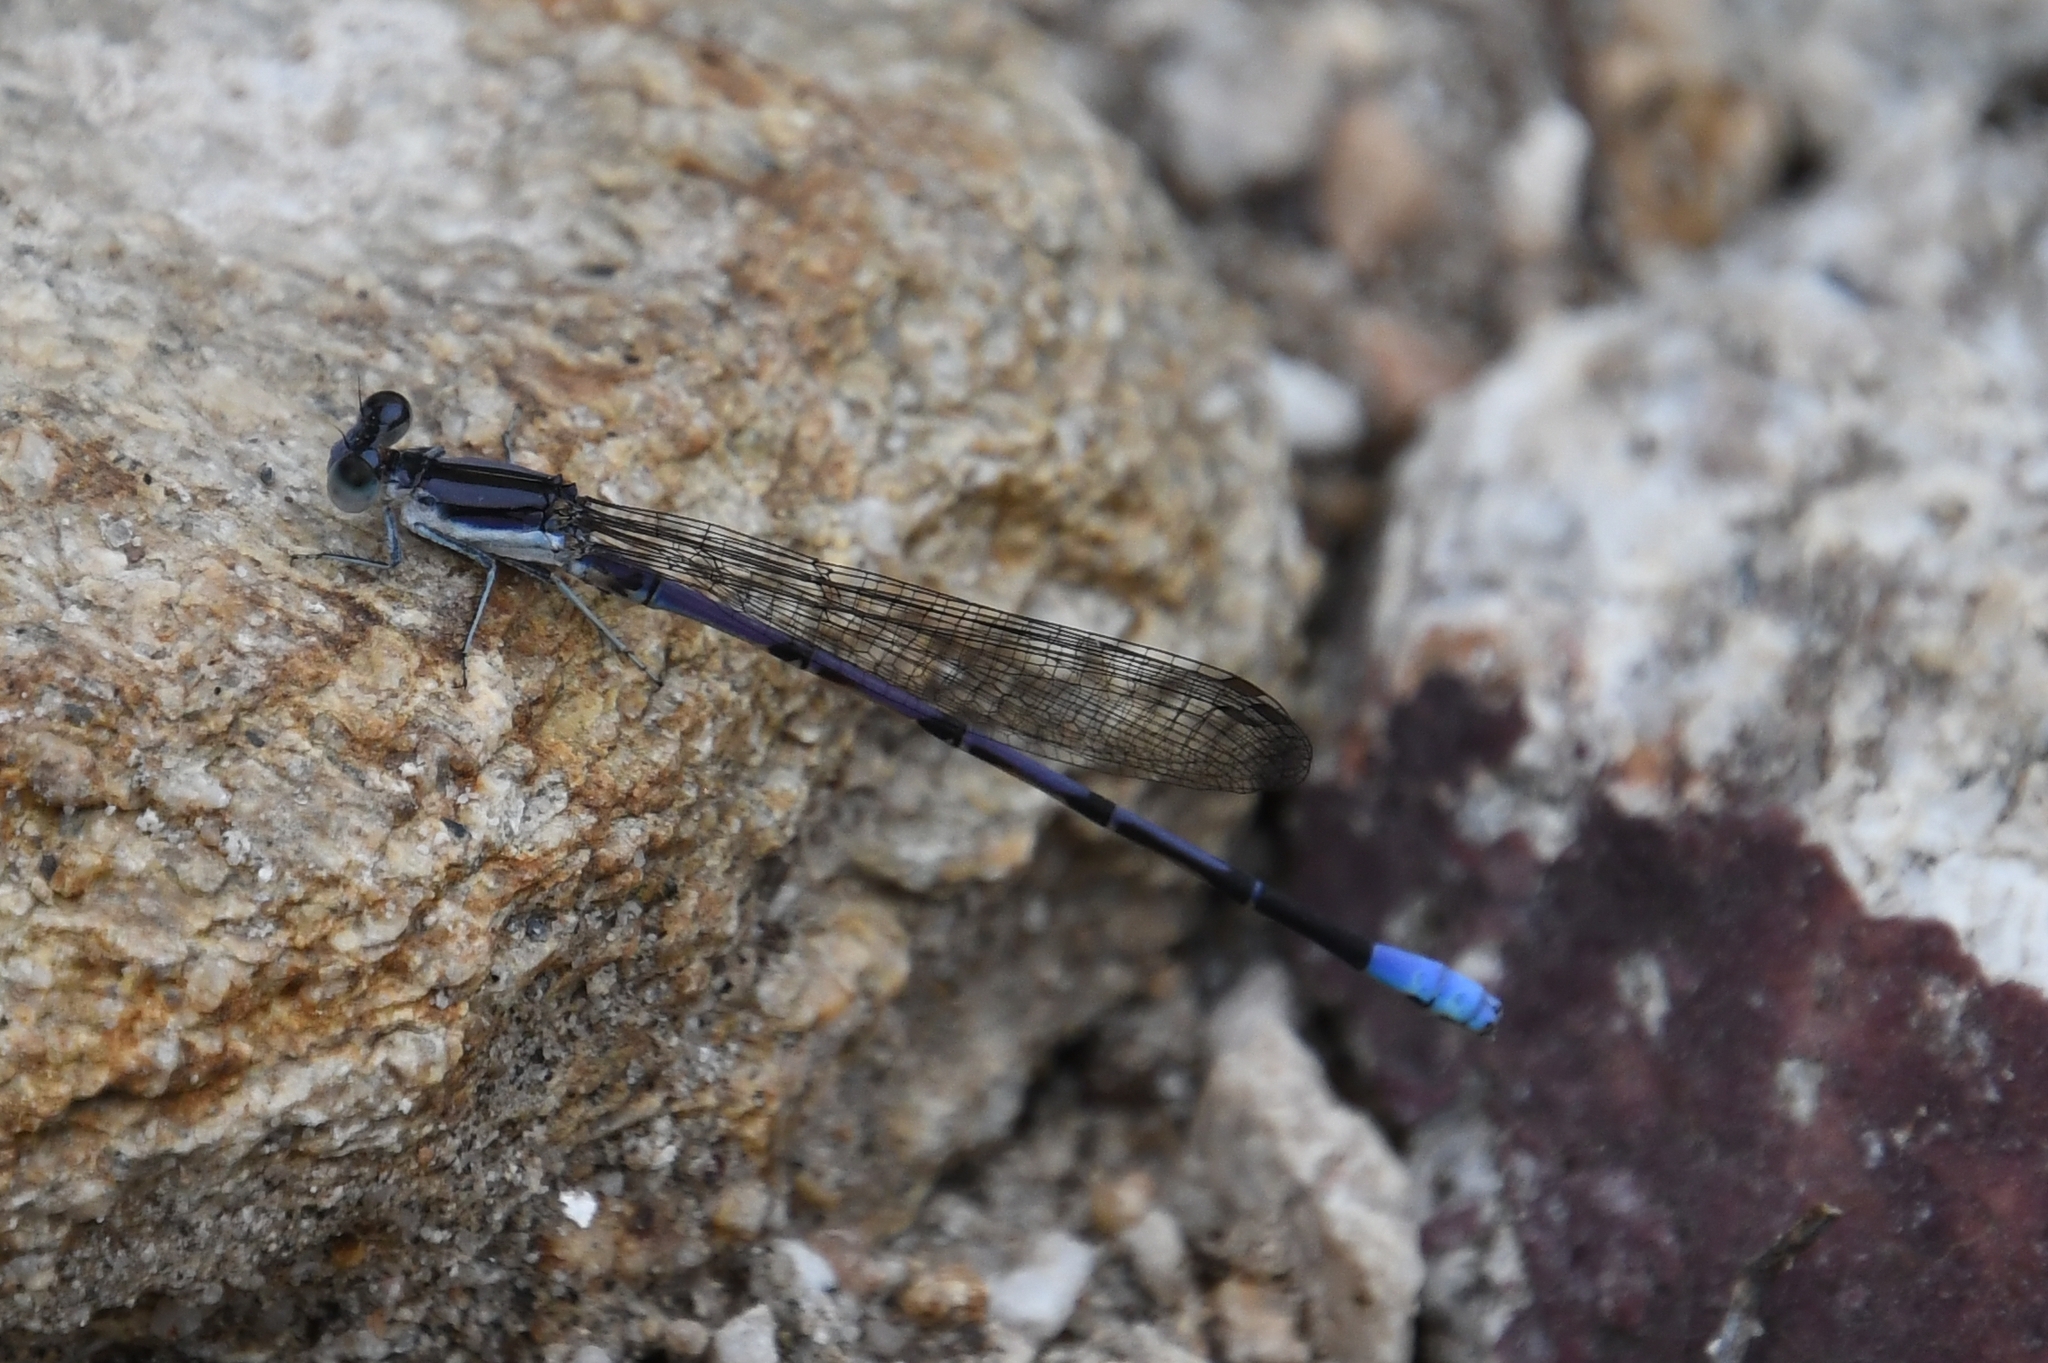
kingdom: Animalia
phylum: Arthropoda
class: Insecta
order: Odonata
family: Coenagrionidae
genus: Argia
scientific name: Argia hinei
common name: Lavender dancer
